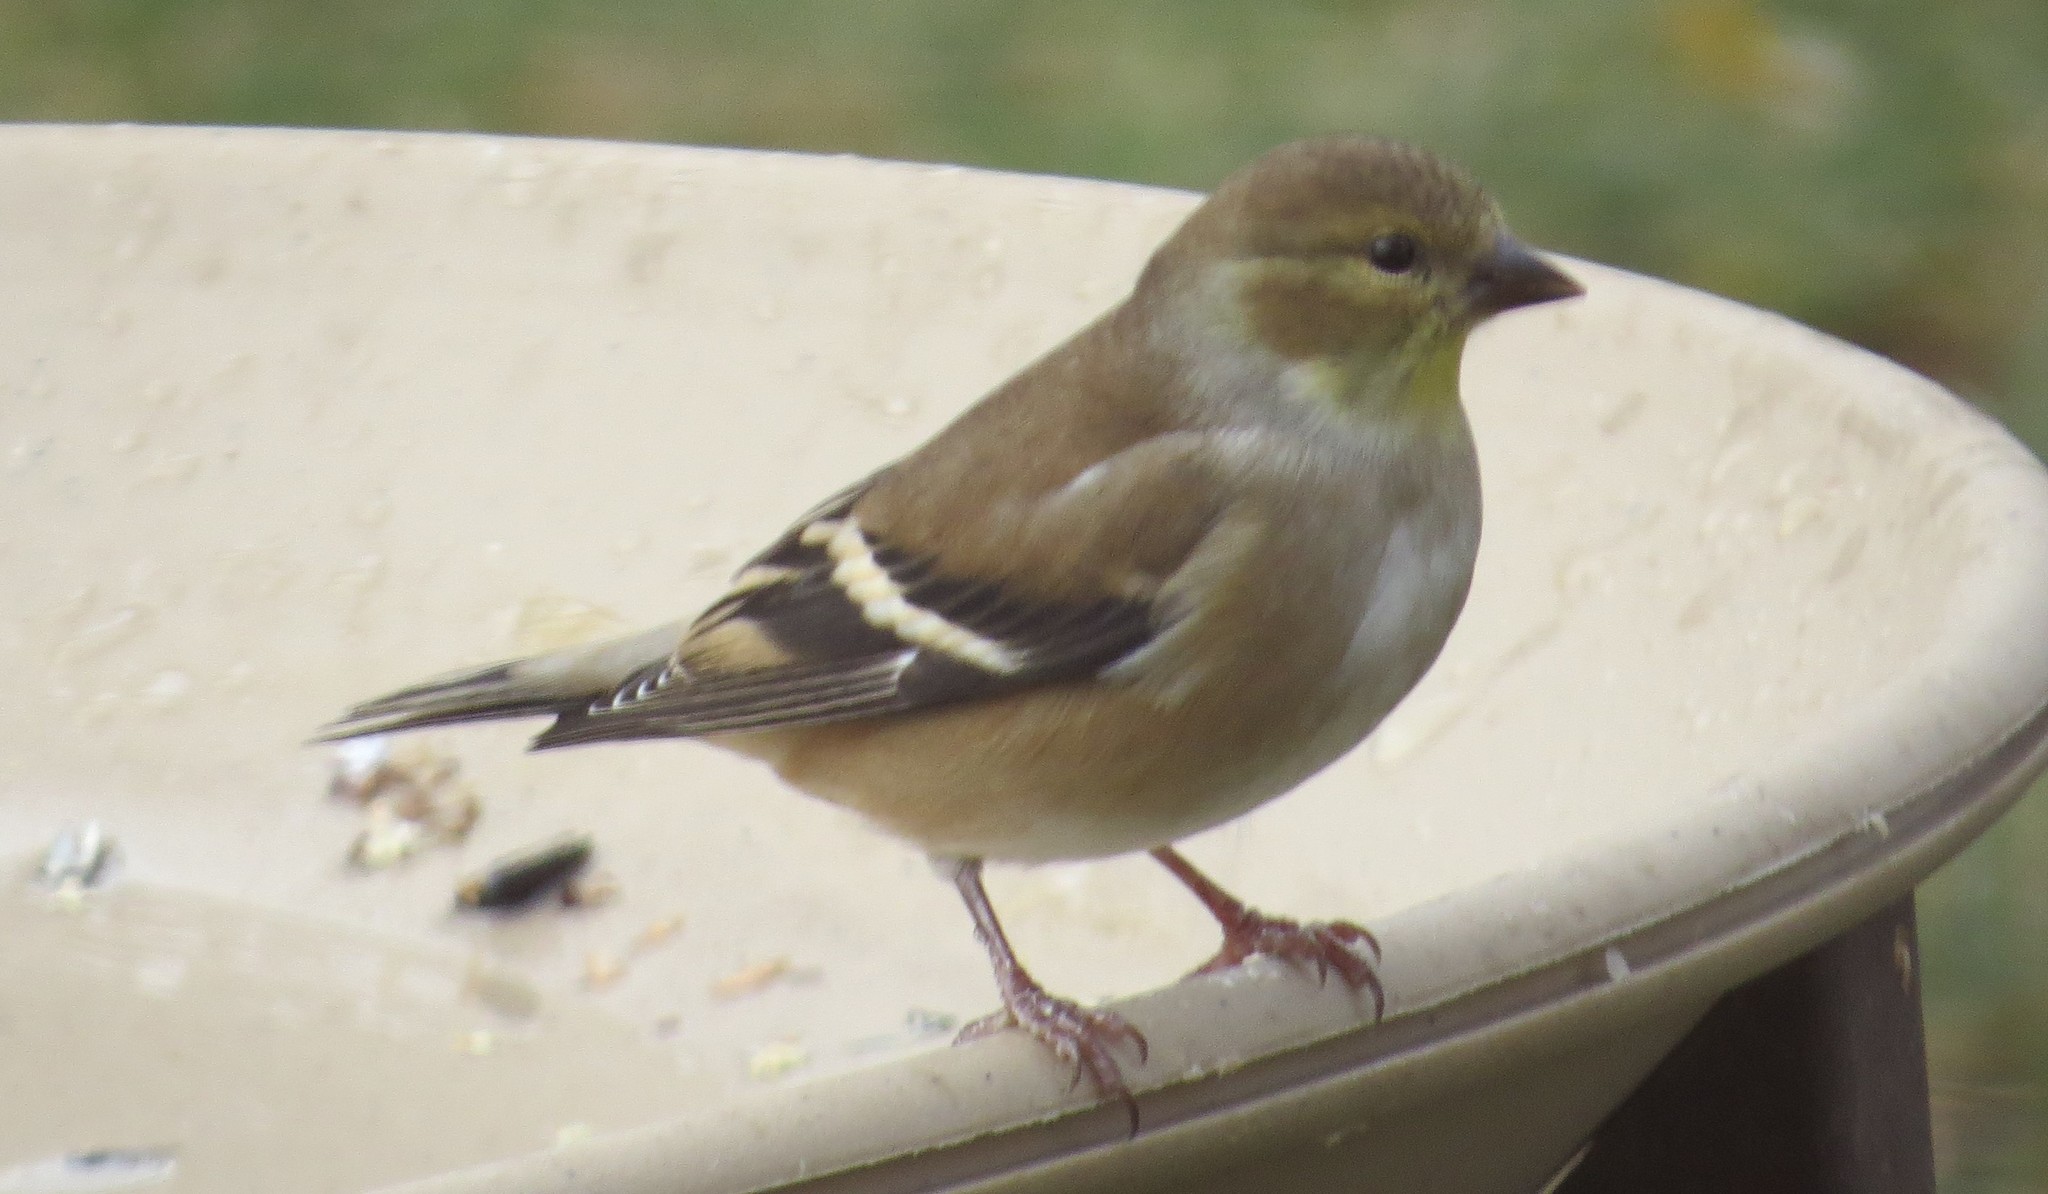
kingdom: Animalia
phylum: Chordata
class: Aves
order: Passeriformes
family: Fringillidae
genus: Spinus
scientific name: Spinus tristis
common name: American goldfinch
